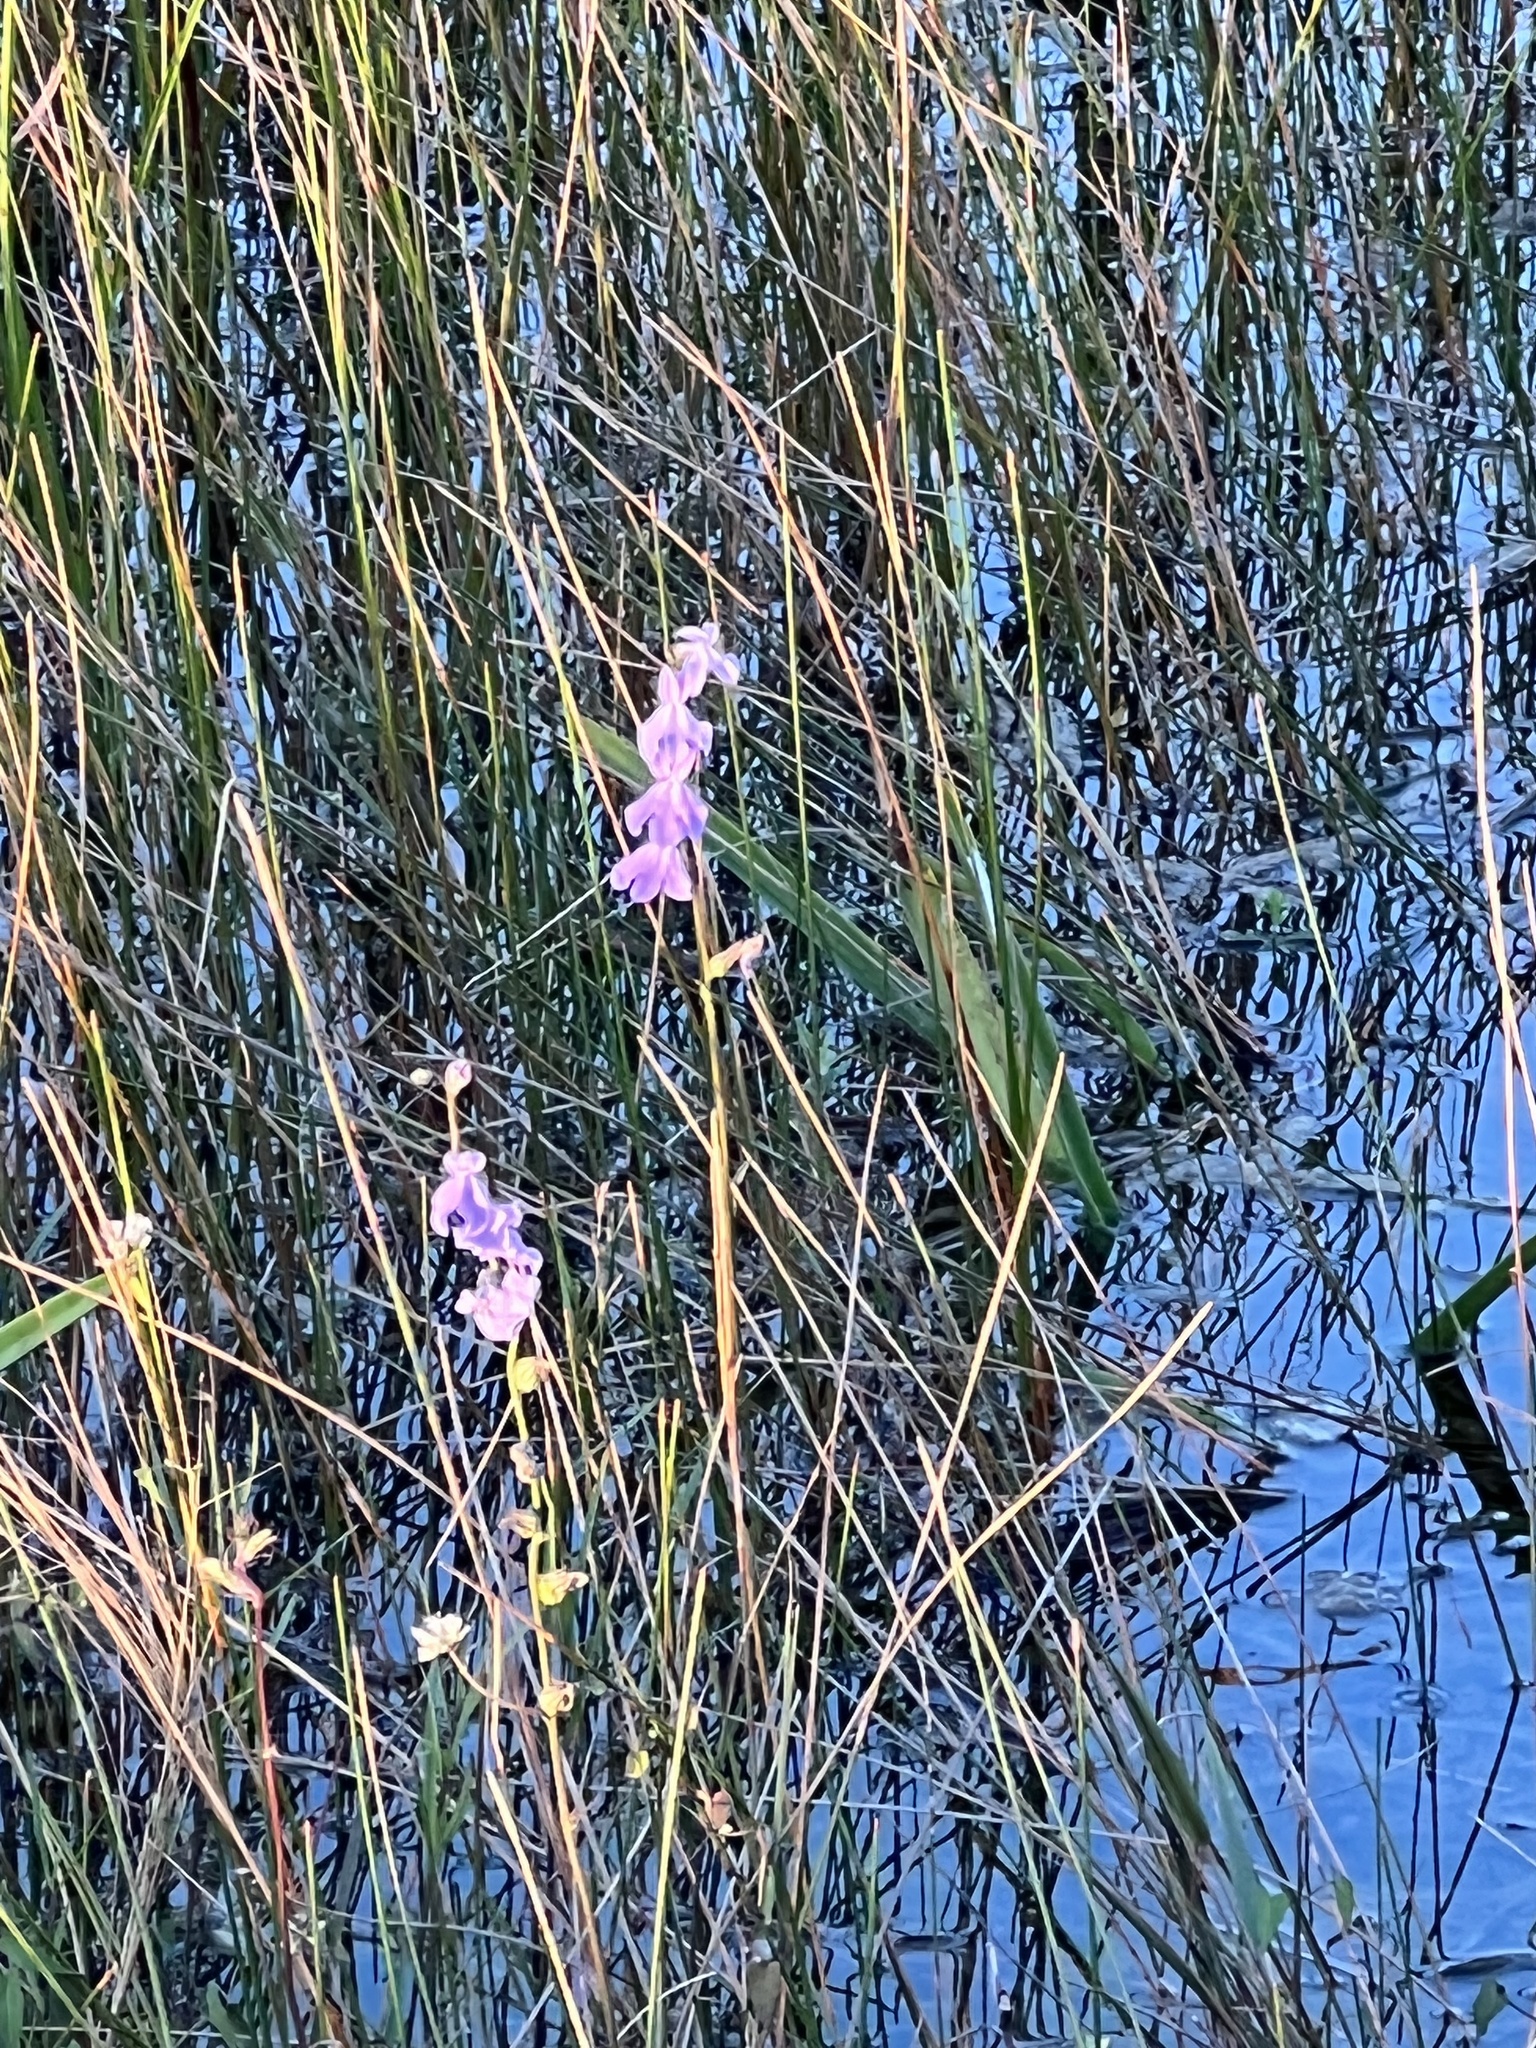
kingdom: Plantae
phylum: Tracheophyta
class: Magnoliopsida
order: Asterales
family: Campanulaceae
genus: Lobelia
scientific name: Lobelia glandulosa
